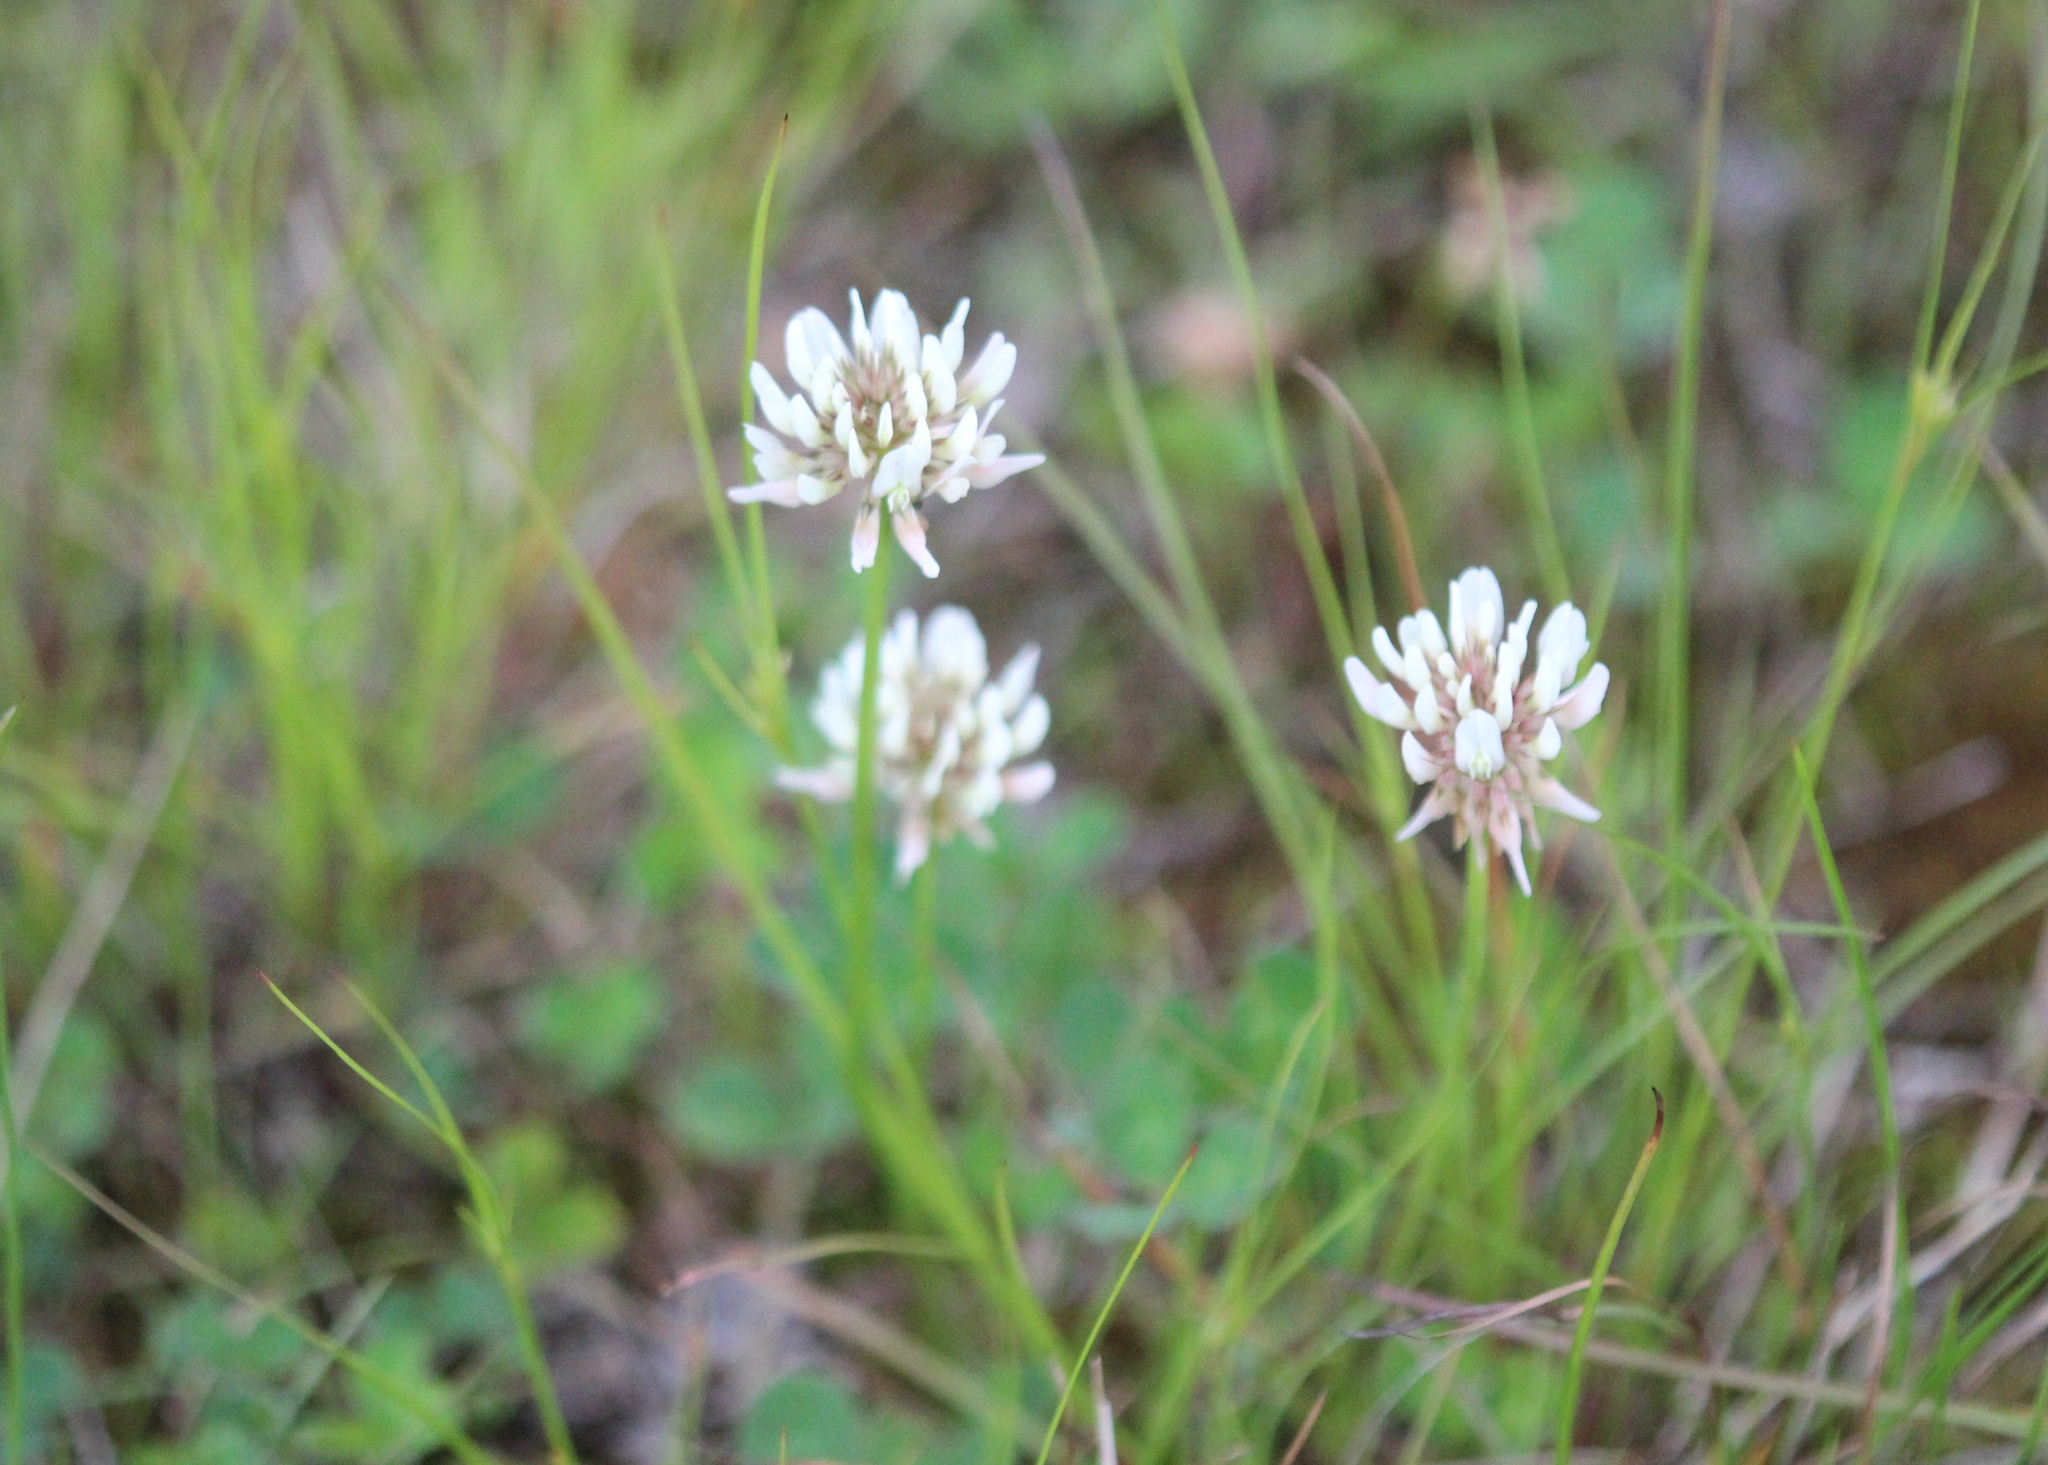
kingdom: Plantae
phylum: Tracheophyta
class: Magnoliopsida
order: Fabales
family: Fabaceae
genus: Trifolium
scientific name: Trifolium repens
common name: White clover
